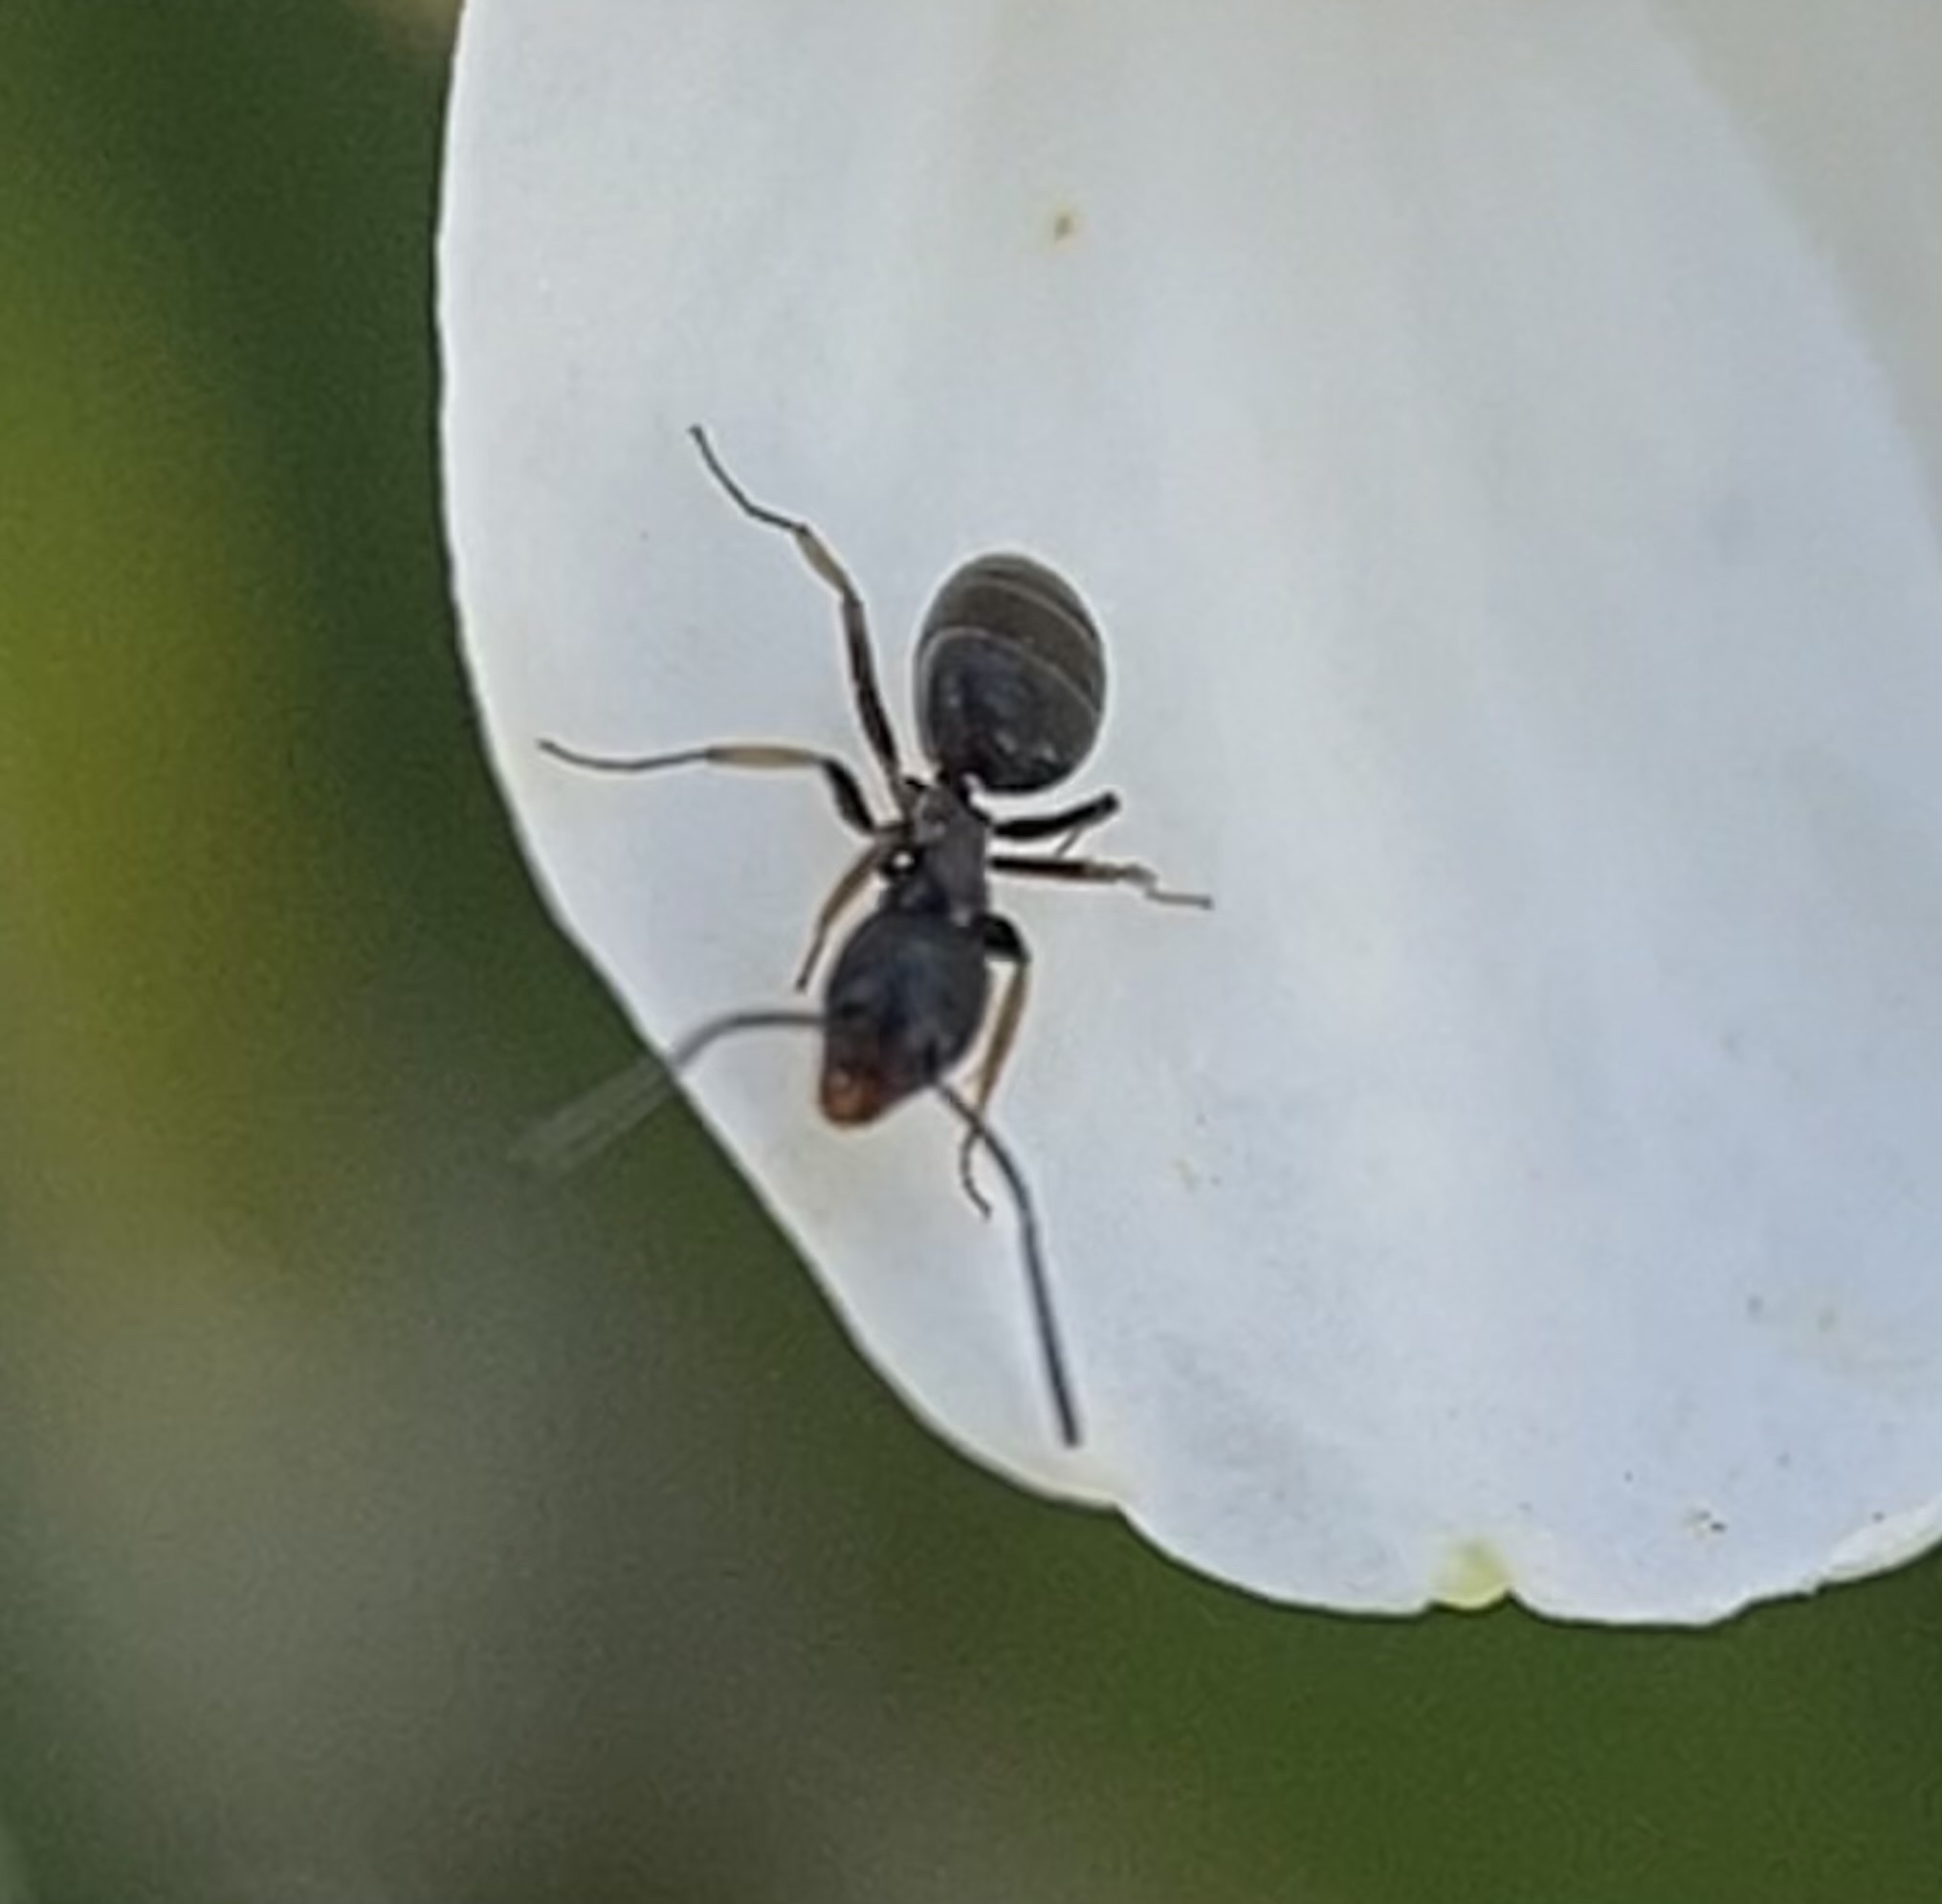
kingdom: Animalia
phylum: Arthropoda
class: Insecta
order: Hymenoptera
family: Formicidae
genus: Tapinoma
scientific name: Tapinoma sessile
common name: Odorous house ant
